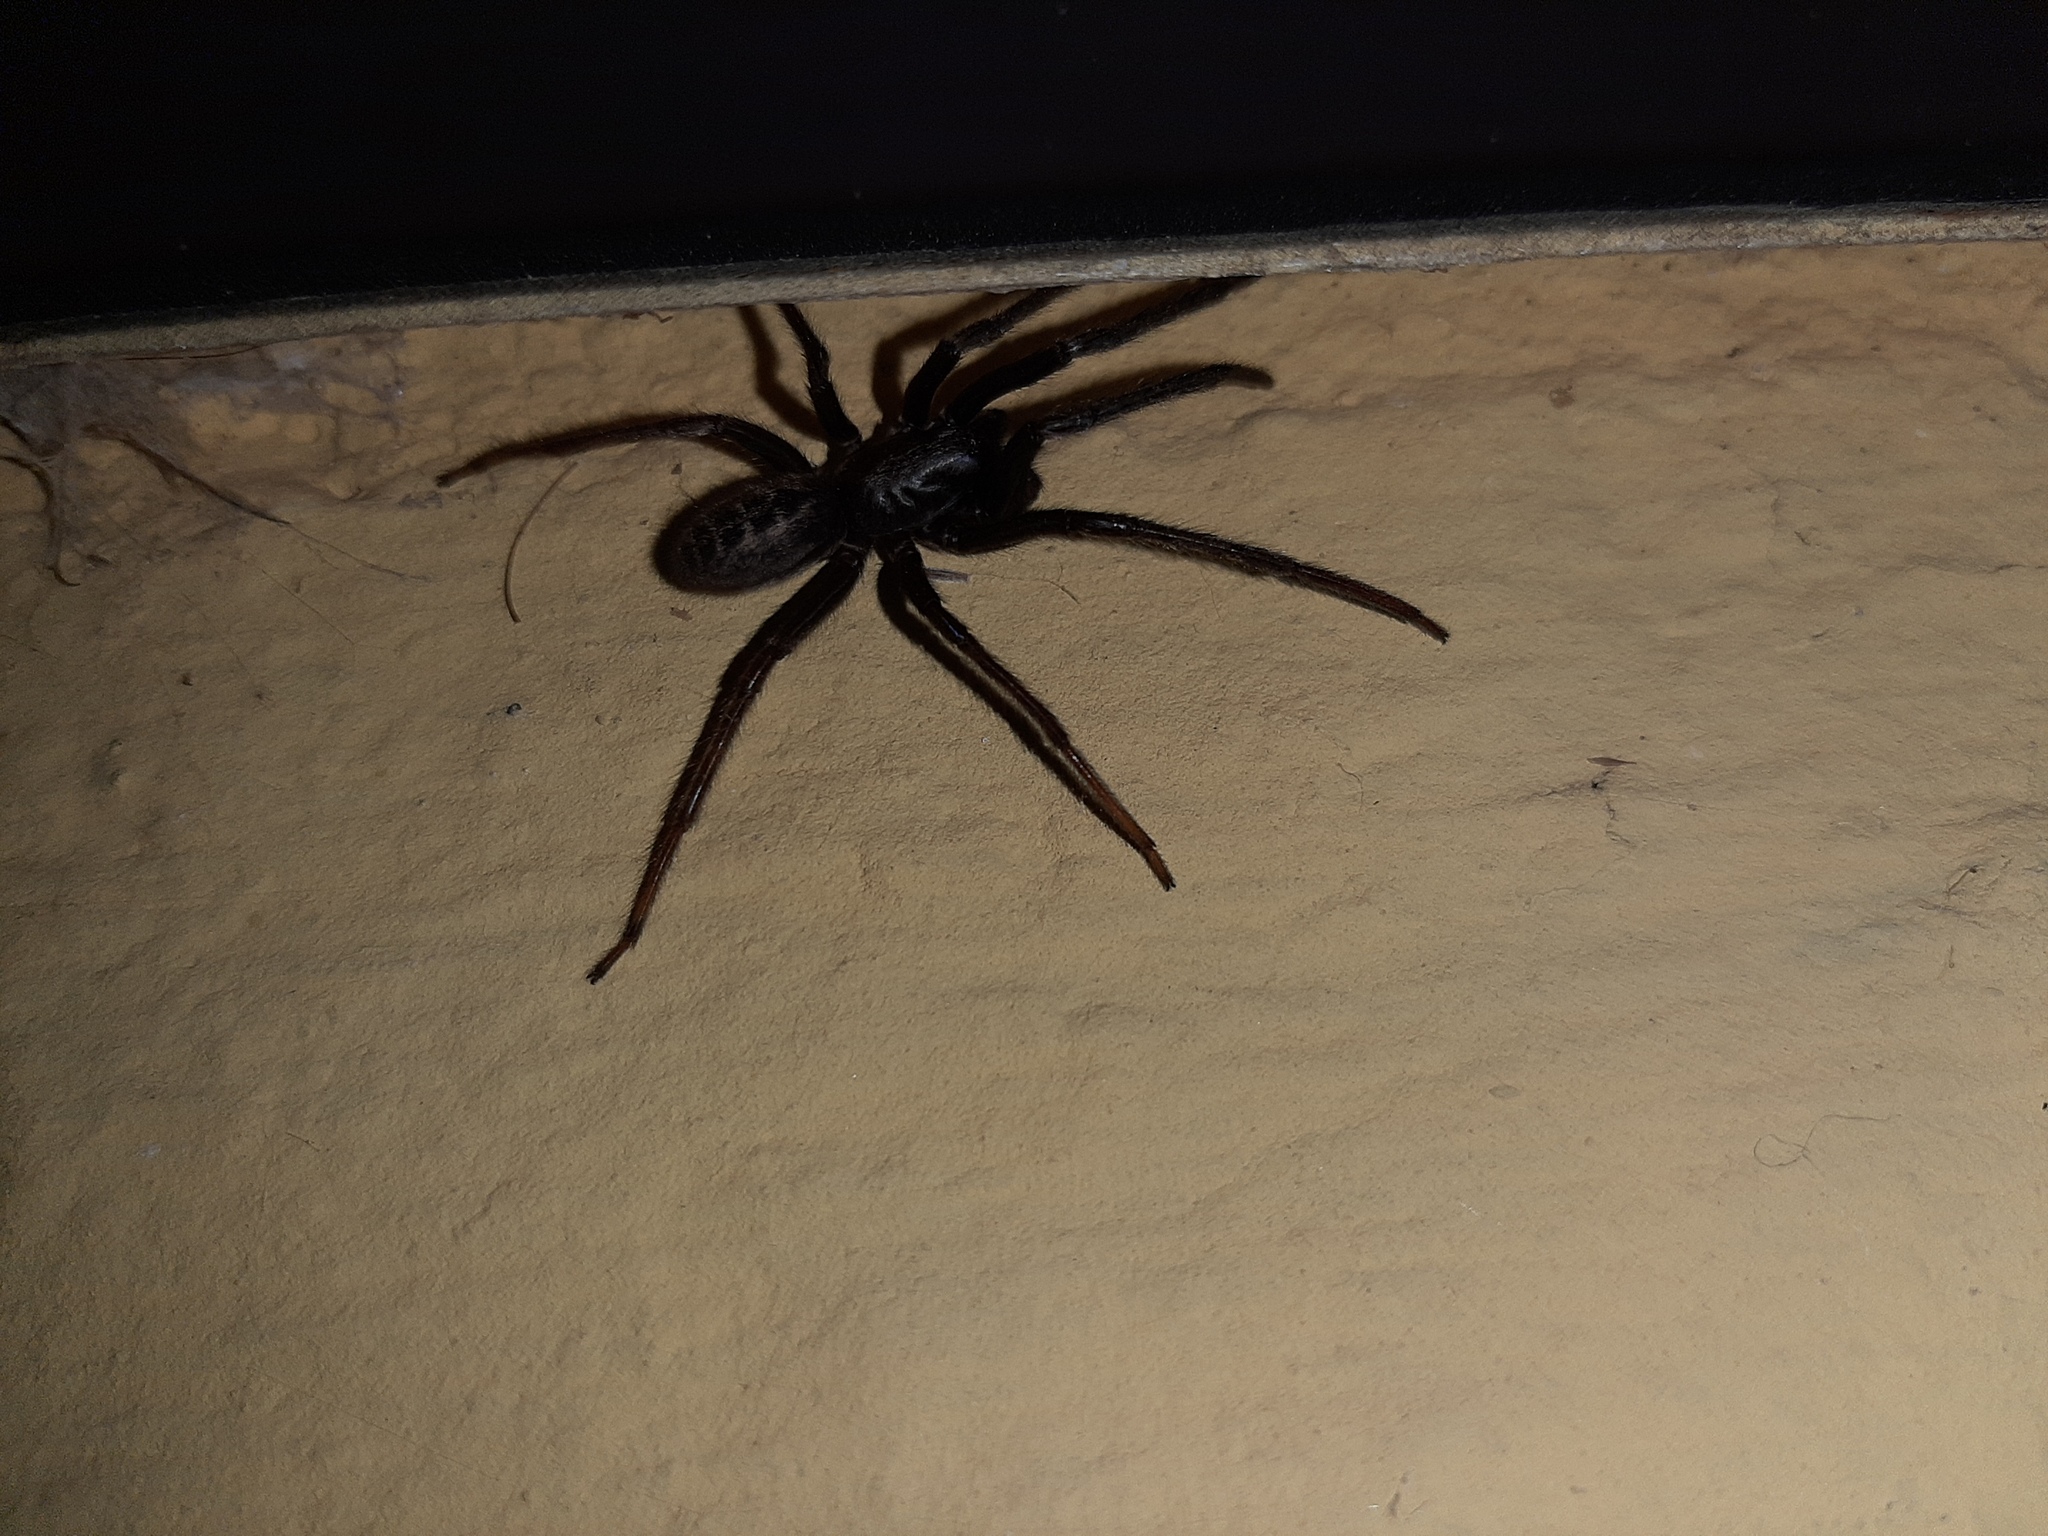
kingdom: Animalia
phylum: Arthropoda
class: Arachnida
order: Araneae
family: Segestriidae
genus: Segestria
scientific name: Segestria florentina
